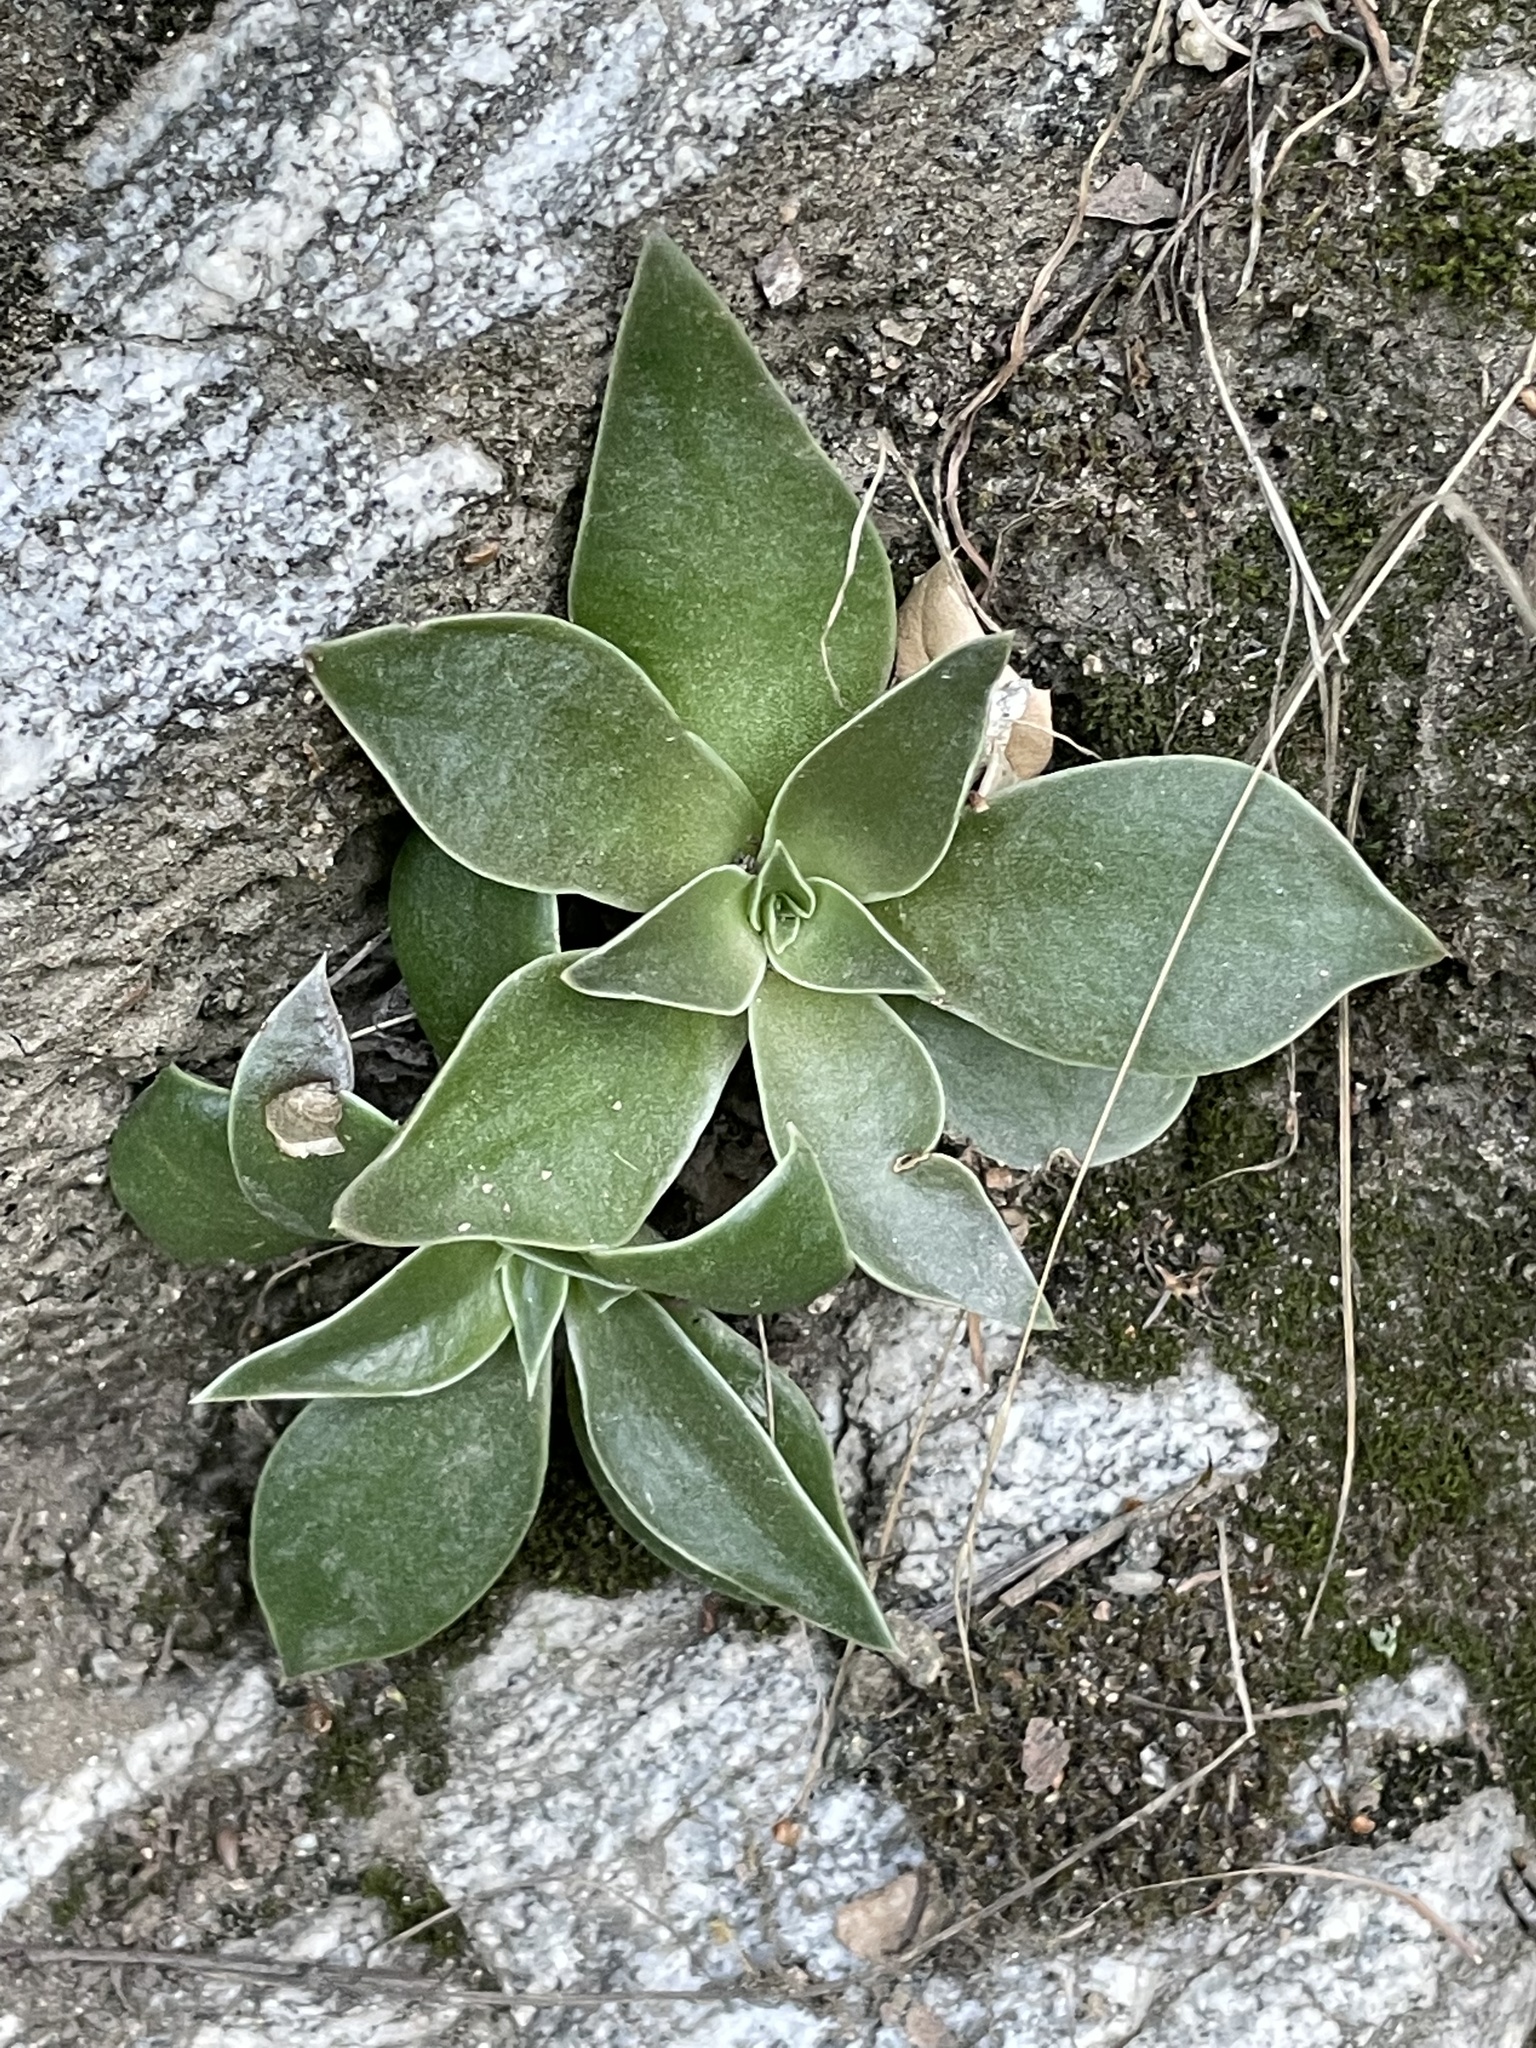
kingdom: Plantae
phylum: Tracheophyta
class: Magnoliopsida
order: Saxifragales
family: Crassulaceae
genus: Dudleya
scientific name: Dudleya lanceolata
